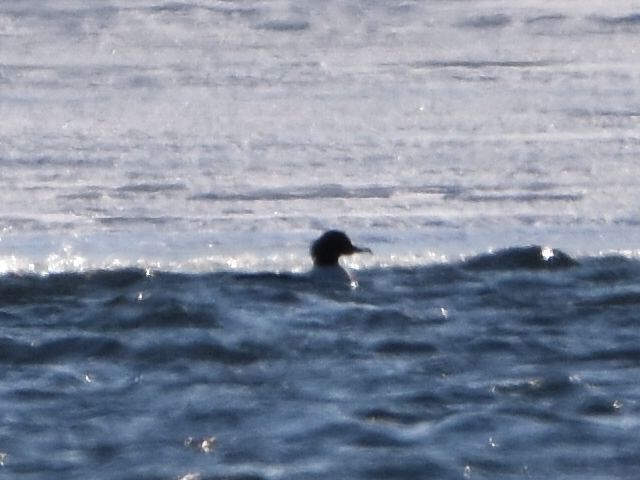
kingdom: Animalia
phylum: Chordata
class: Aves
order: Anseriformes
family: Anatidae
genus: Mergus
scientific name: Mergus merganser
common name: Common merganser
